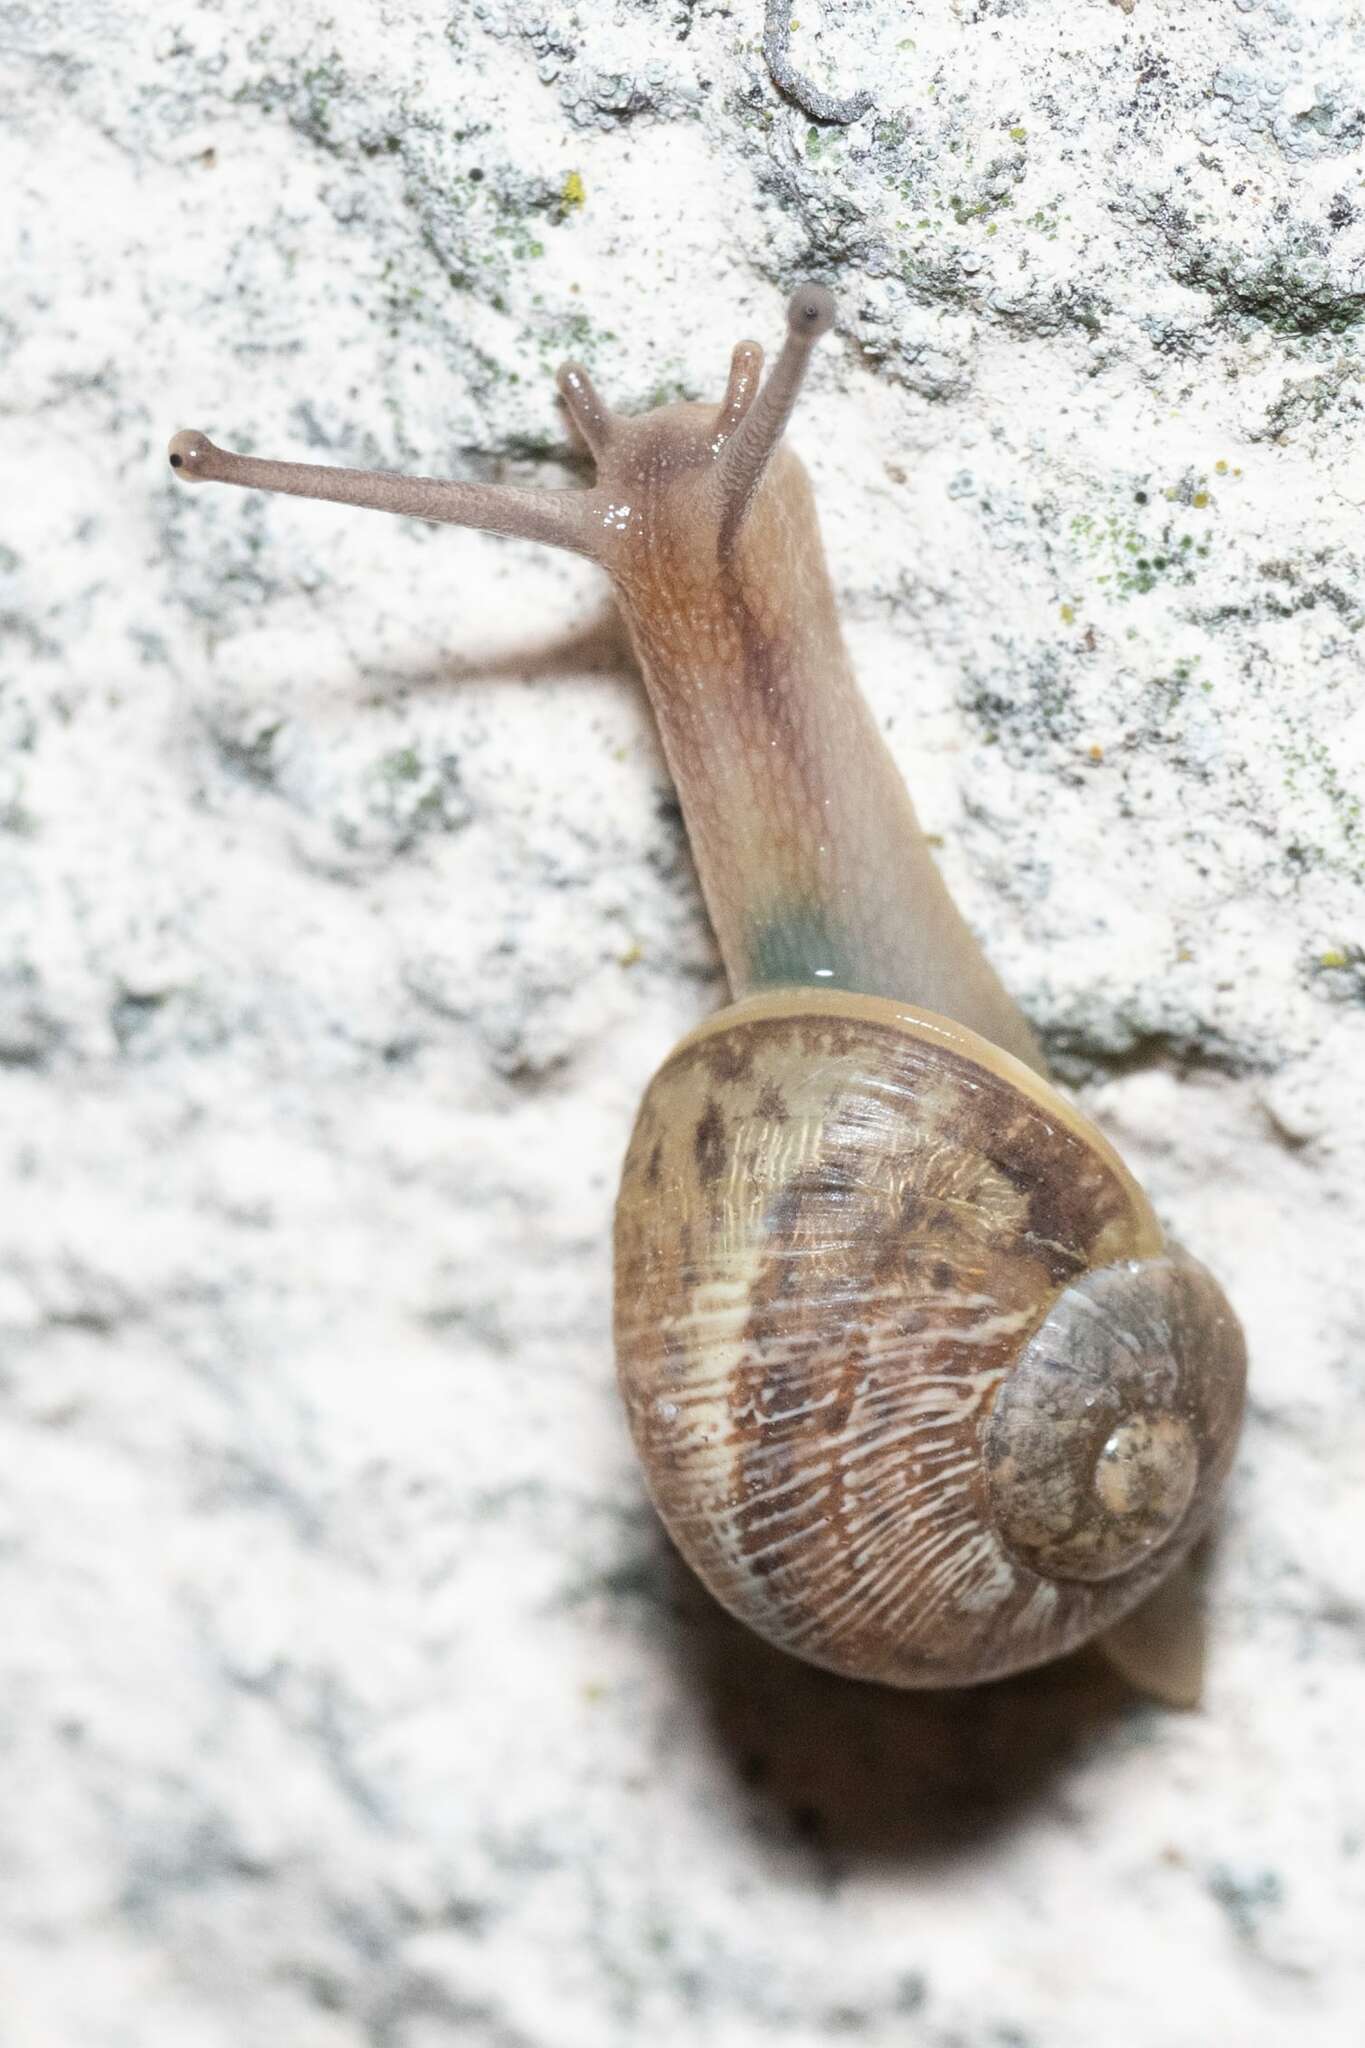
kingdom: Animalia
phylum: Mollusca
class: Gastropoda
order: Stylommatophora
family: Helicidae
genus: Cornu
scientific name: Cornu aspersum
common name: Brown garden snail
